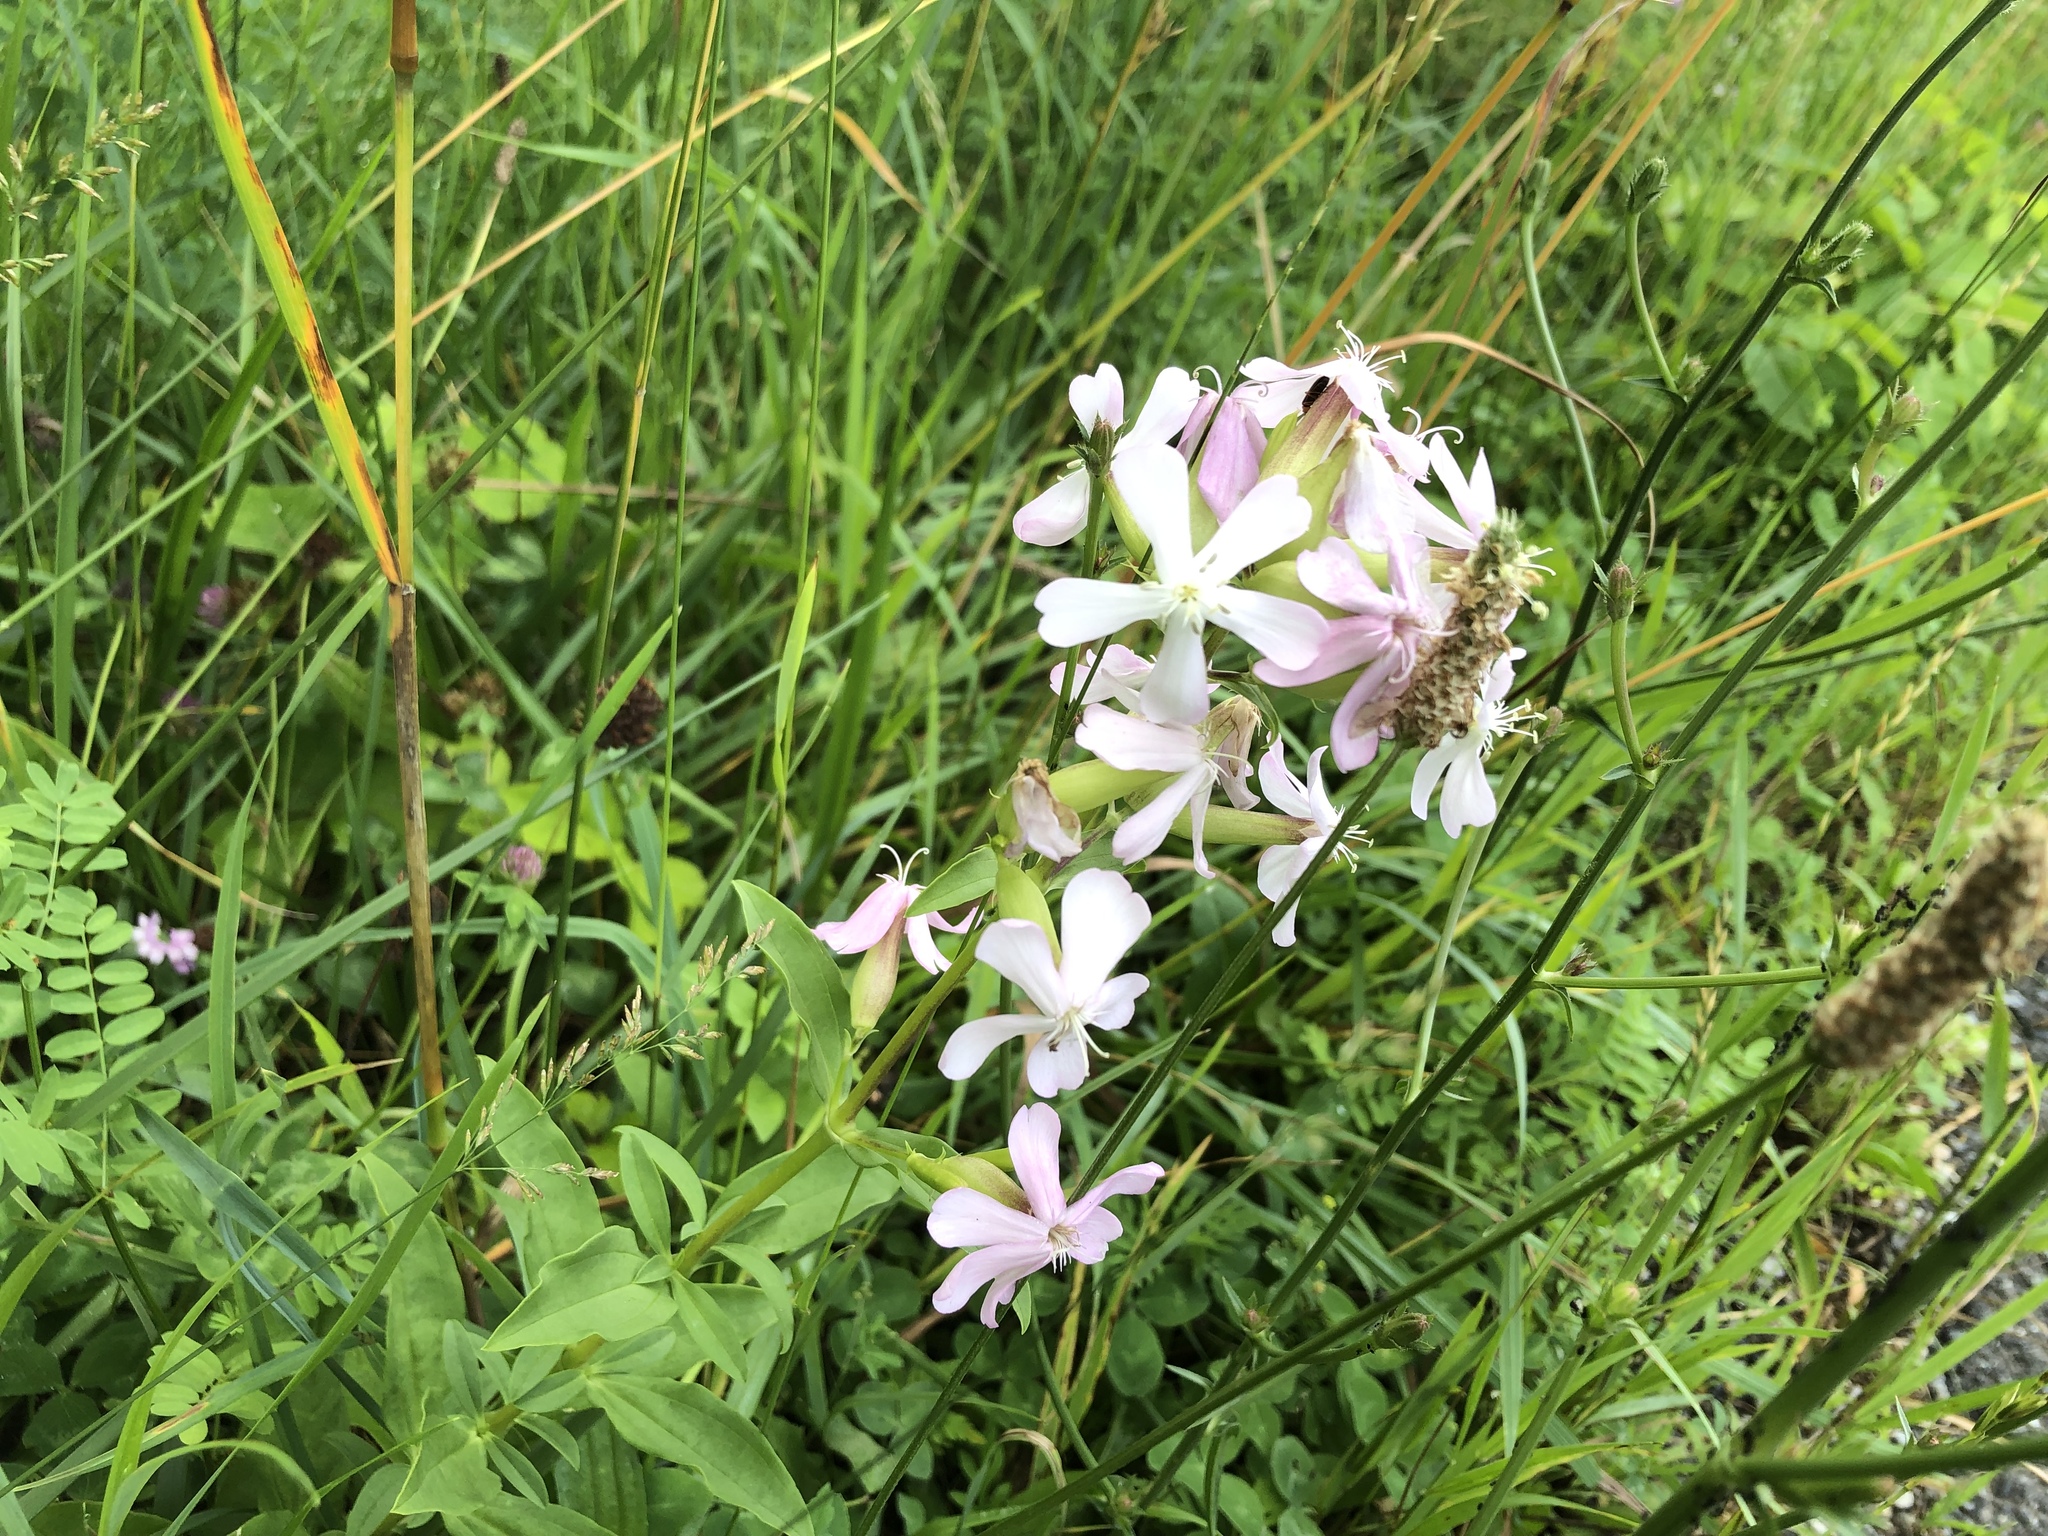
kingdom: Plantae
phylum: Tracheophyta
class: Magnoliopsida
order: Caryophyllales
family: Caryophyllaceae
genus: Saponaria
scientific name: Saponaria officinalis
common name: Soapwort
